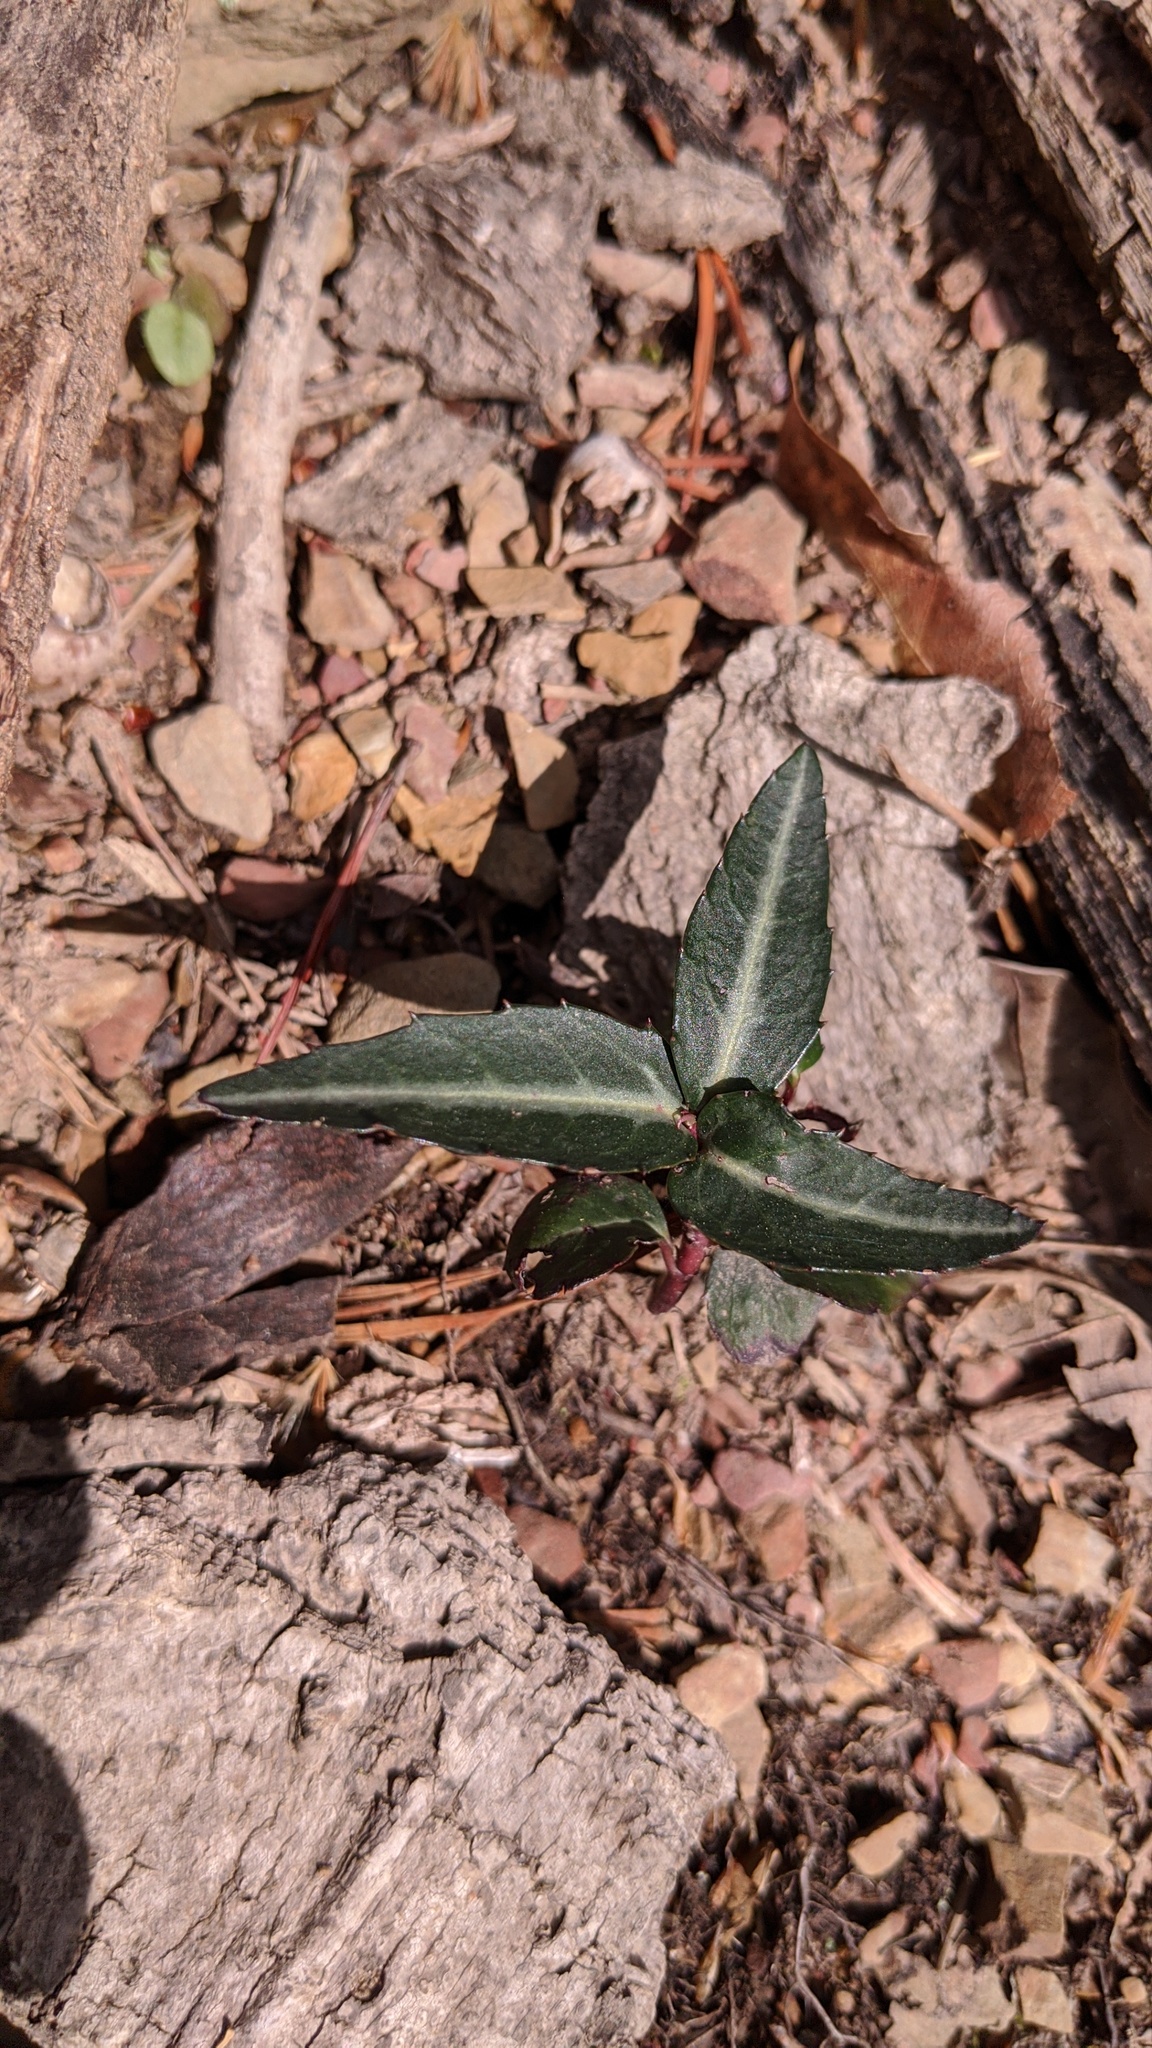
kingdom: Plantae
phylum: Tracheophyta
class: Magnoliopsida
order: Ericales
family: Ericaceae
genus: Chimaphila
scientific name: Chimaphila maculata
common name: Spotted pipsissewa
